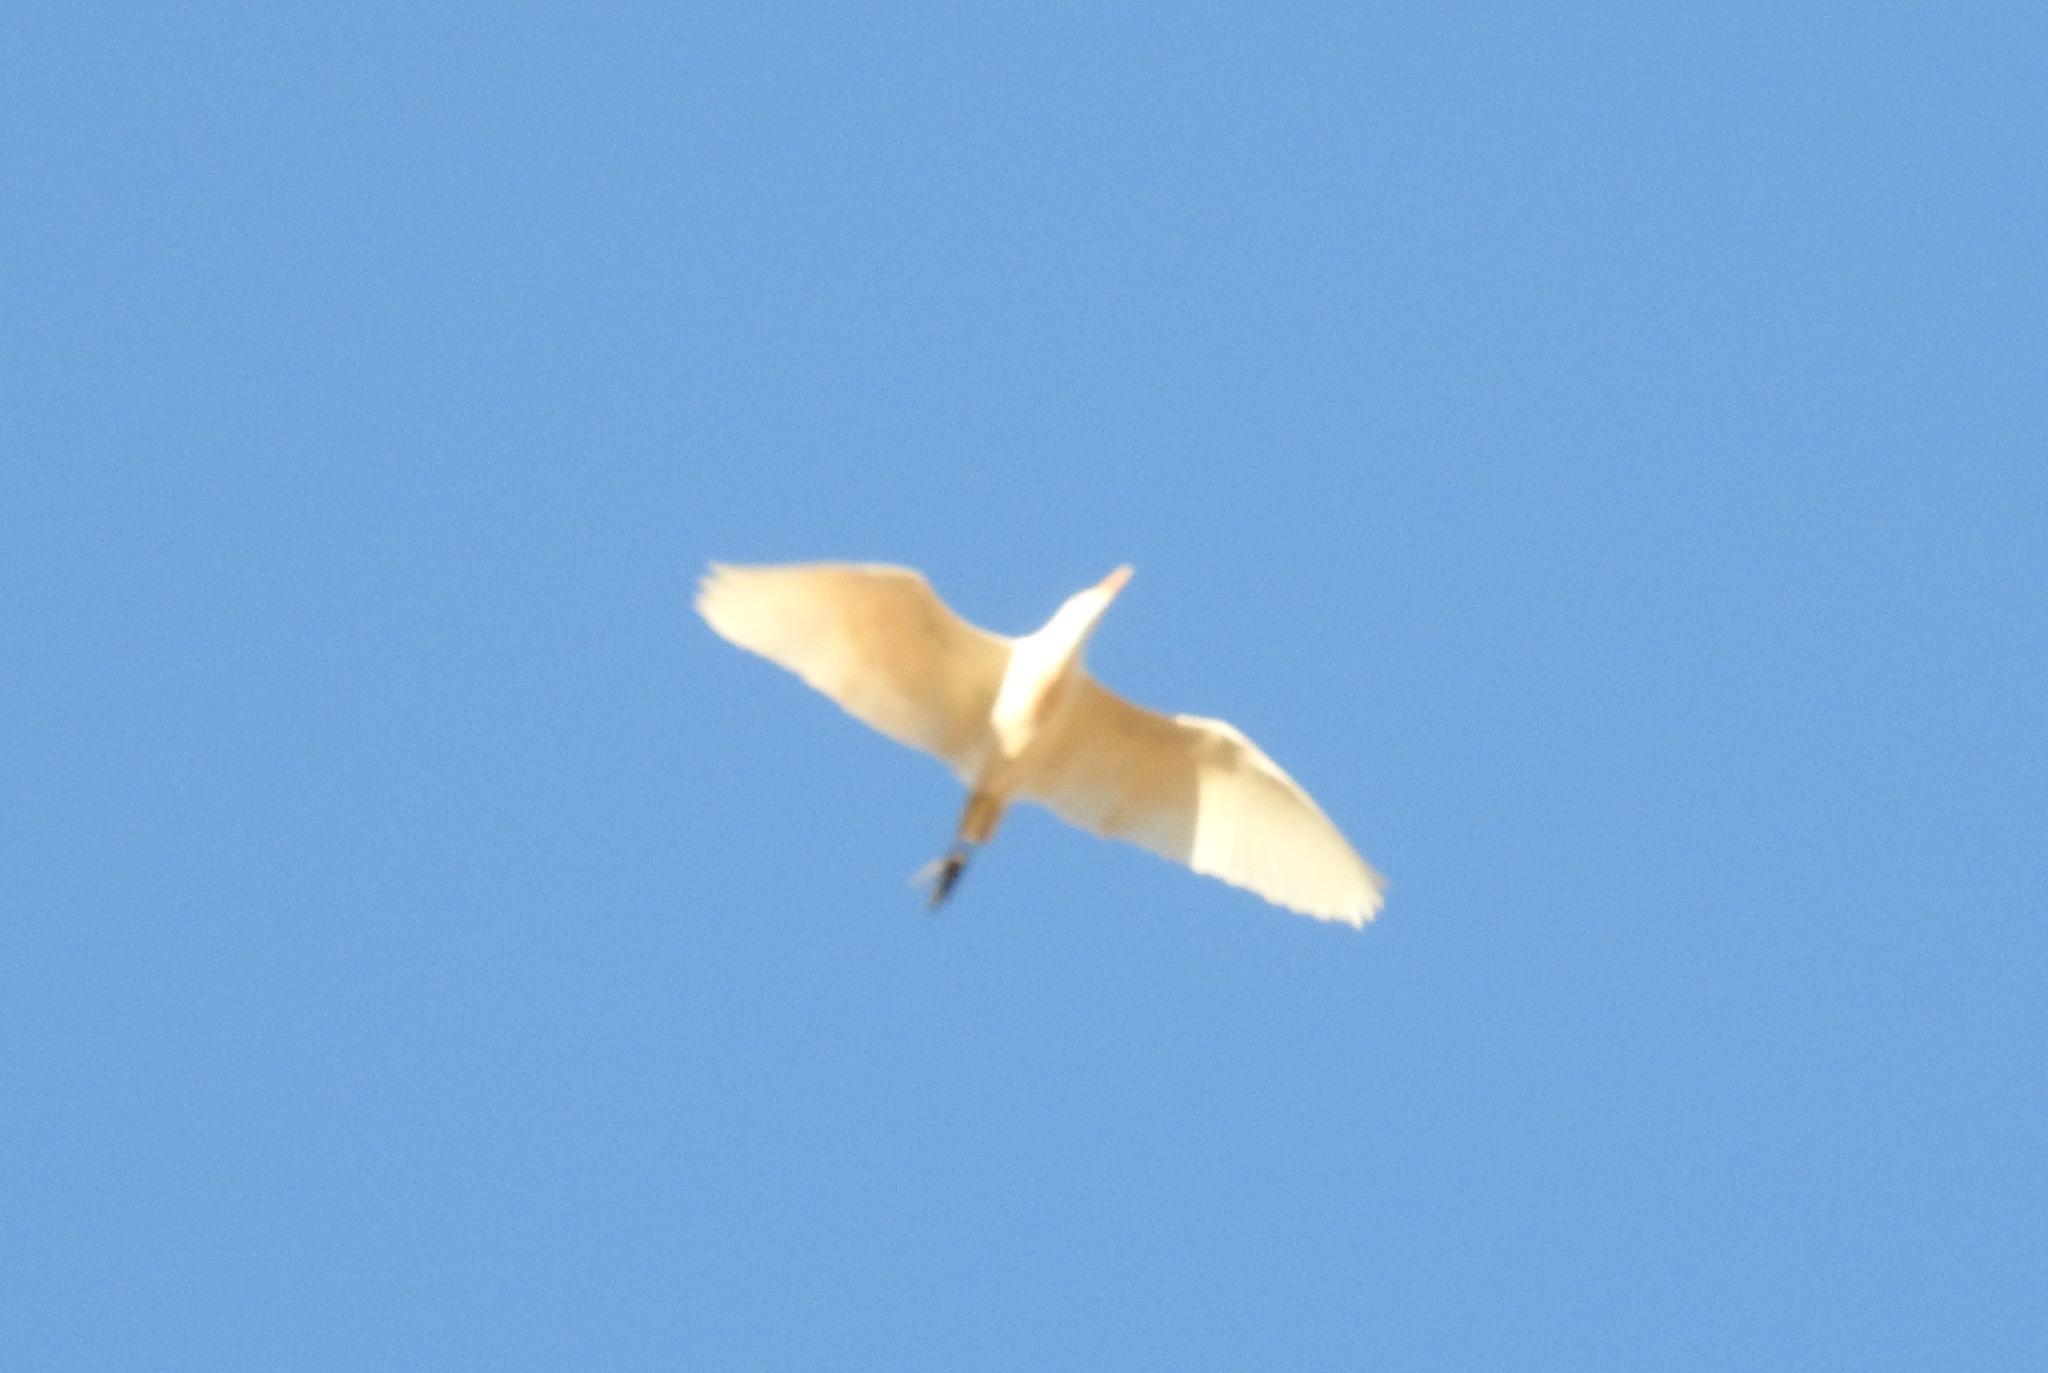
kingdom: Animalia
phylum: Chordata
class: Aves
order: Pelecaniformes
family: Ardeidae
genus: Bubulcus
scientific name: Bubulcus ibis
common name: Cattle egret
